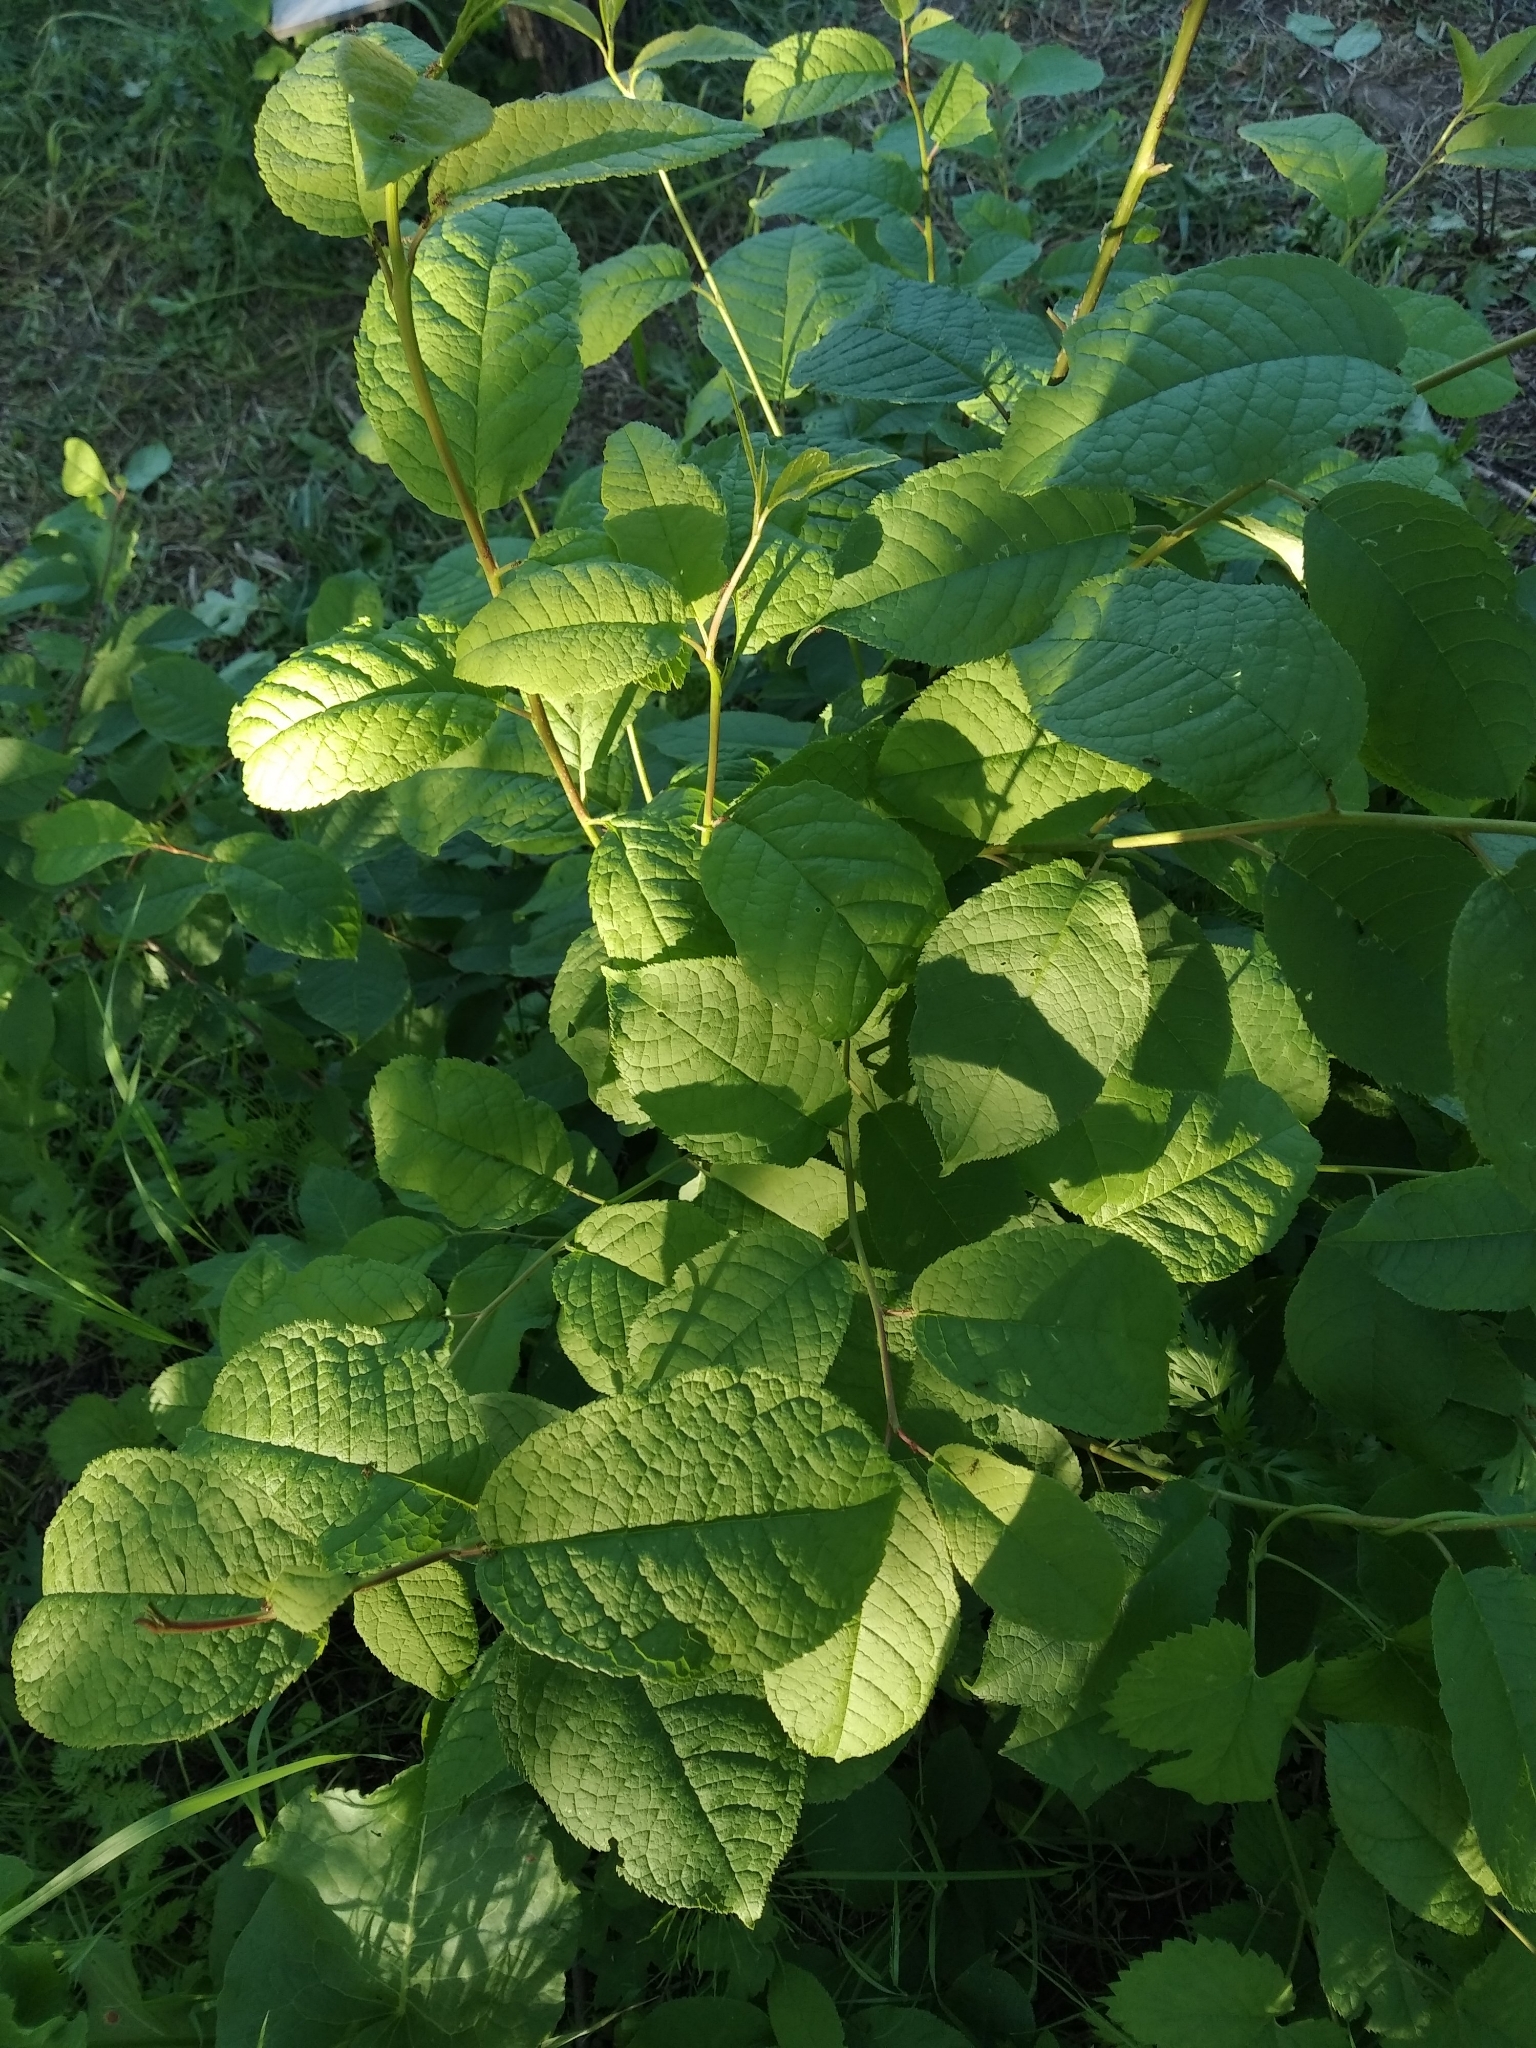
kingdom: Plantae
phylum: Tracheophyta
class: Magnoliopsida
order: Rosales
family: Rosaceae
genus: Prunus
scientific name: Prunus padus
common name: Bird cherry
